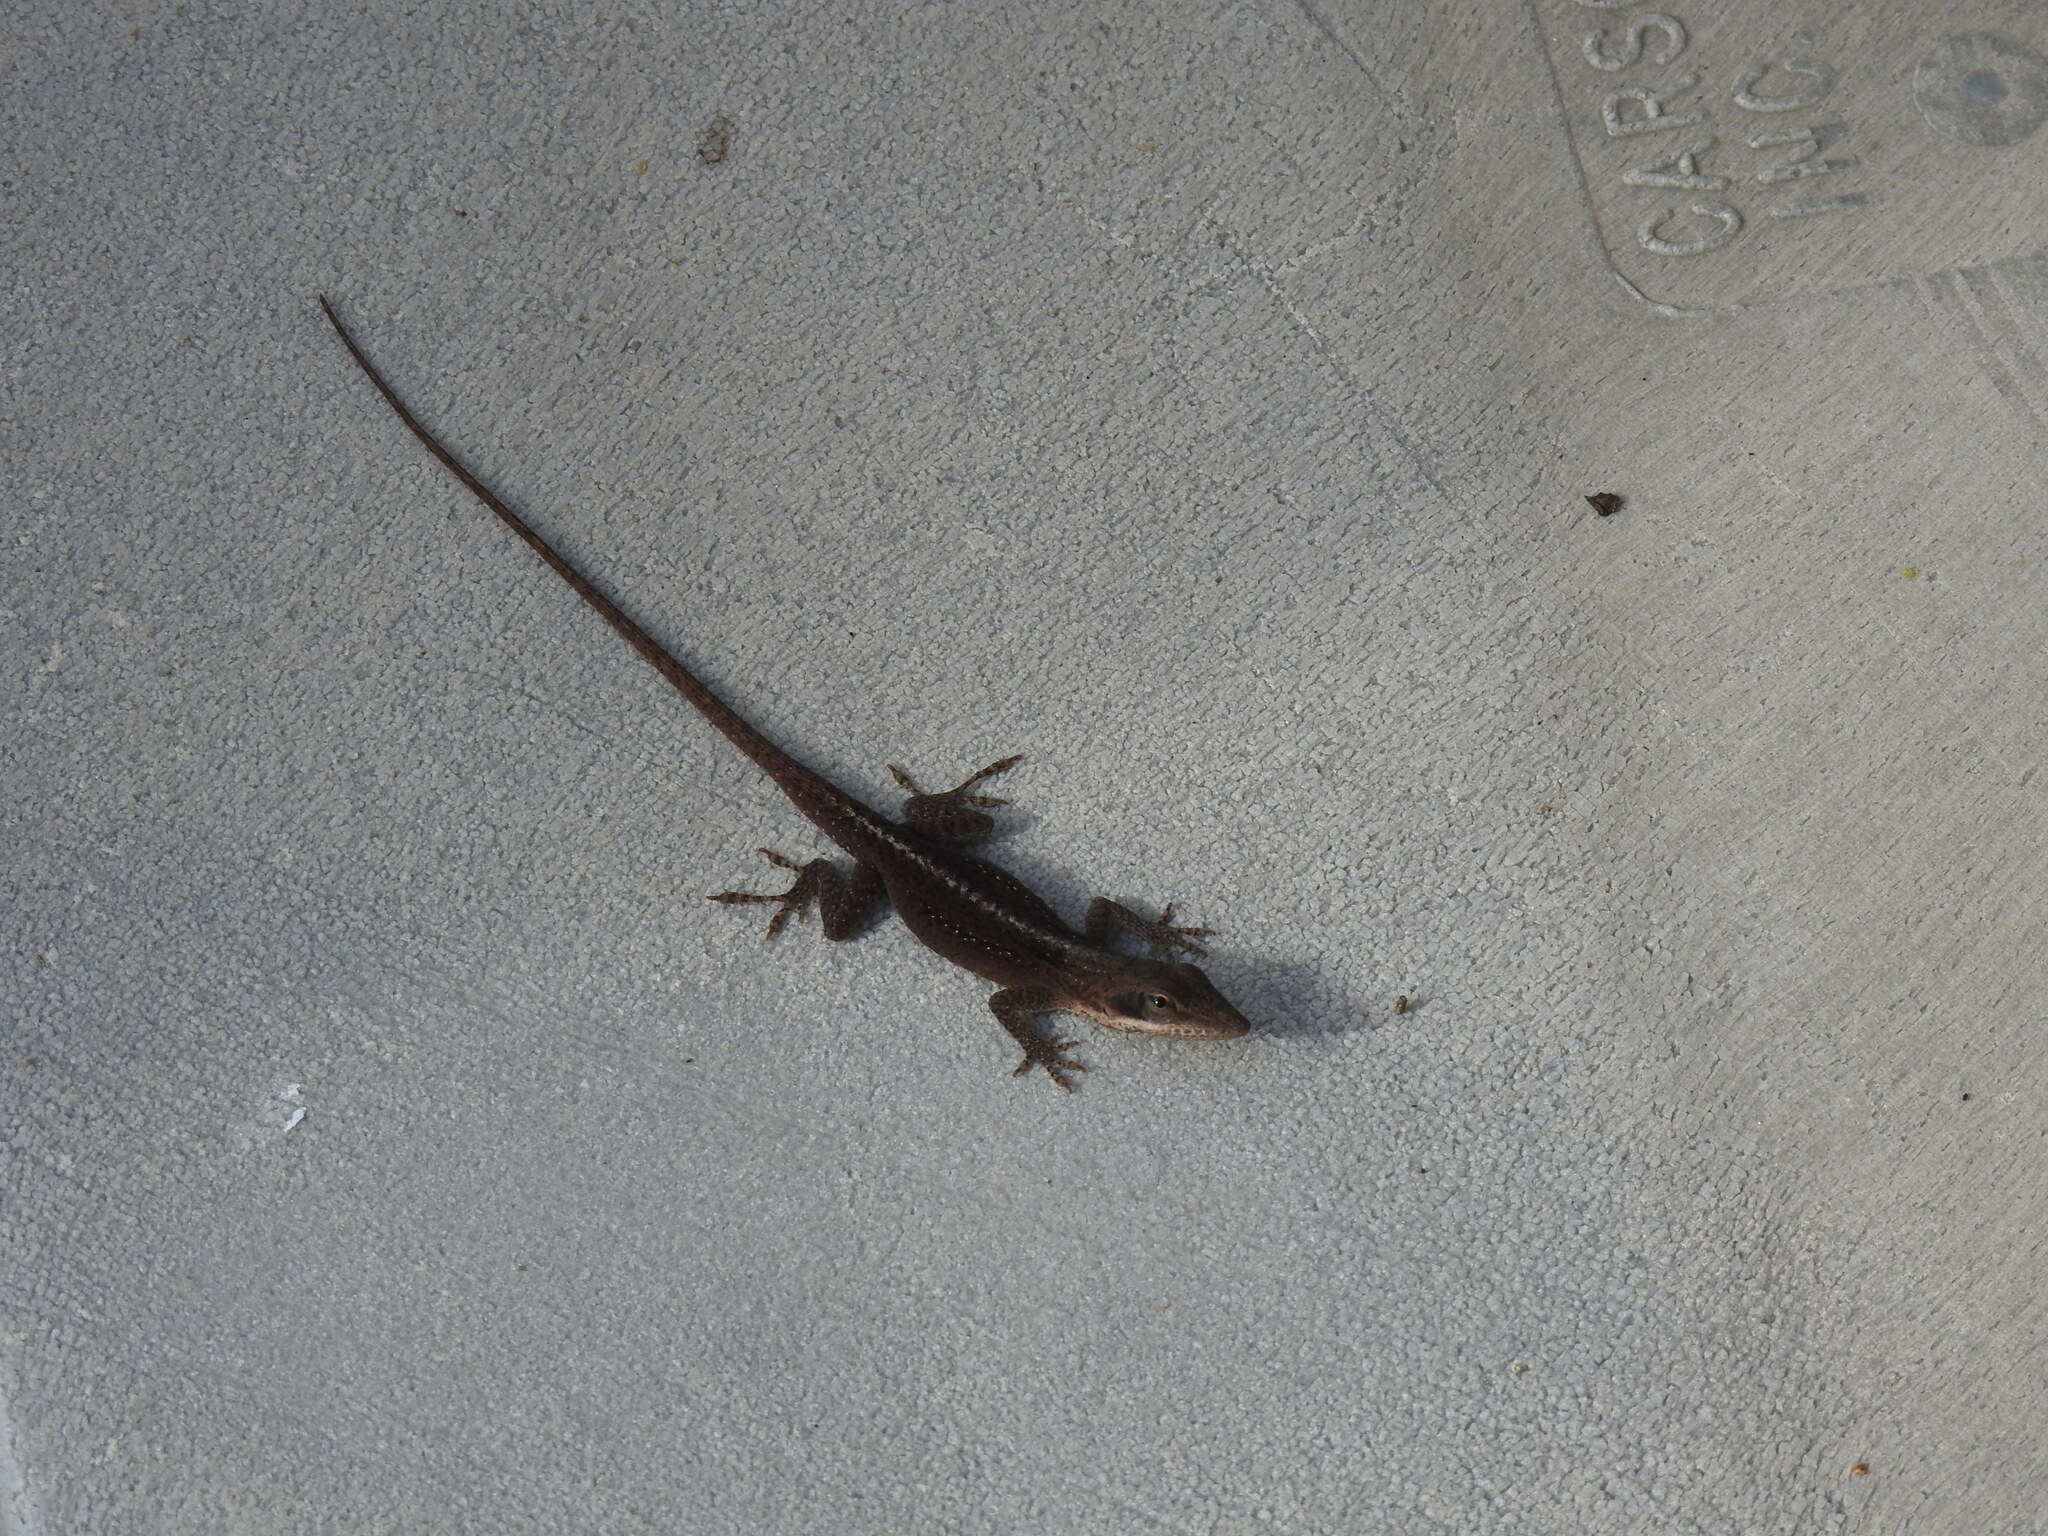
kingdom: Animalia
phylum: Chordata
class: Squamata
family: Dactyloidae
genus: Anolis
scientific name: Anolis carolinensis
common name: Green anole
